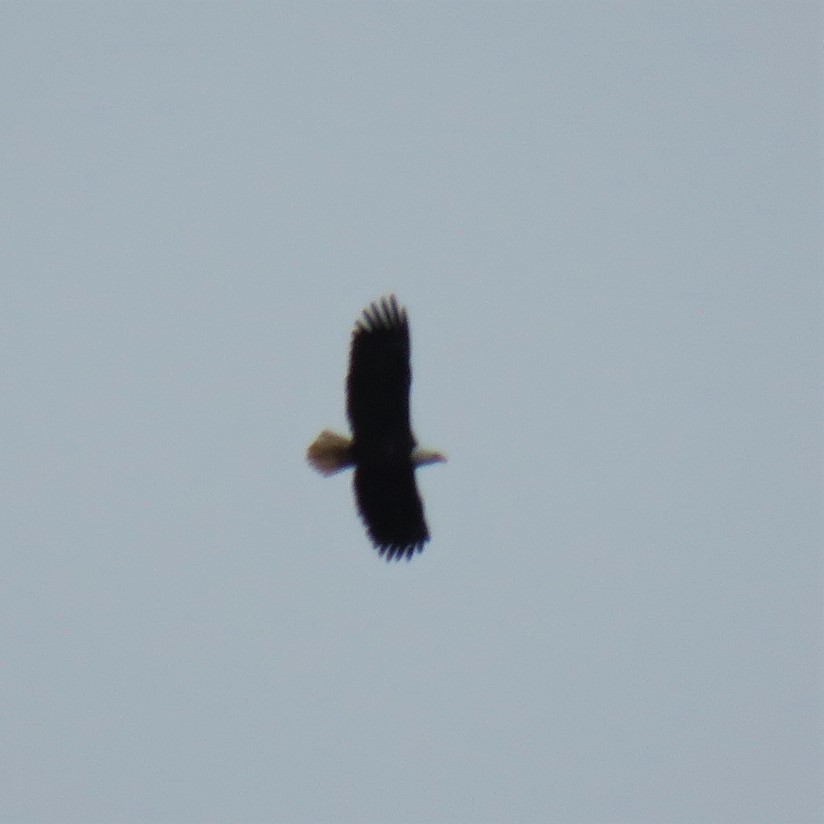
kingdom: Animalia
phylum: Chordata
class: Aves
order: Accipitriformes
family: Accipitridae
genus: Haliaeetus
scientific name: Haliaeetus leucocephalus
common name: Bald eagle
